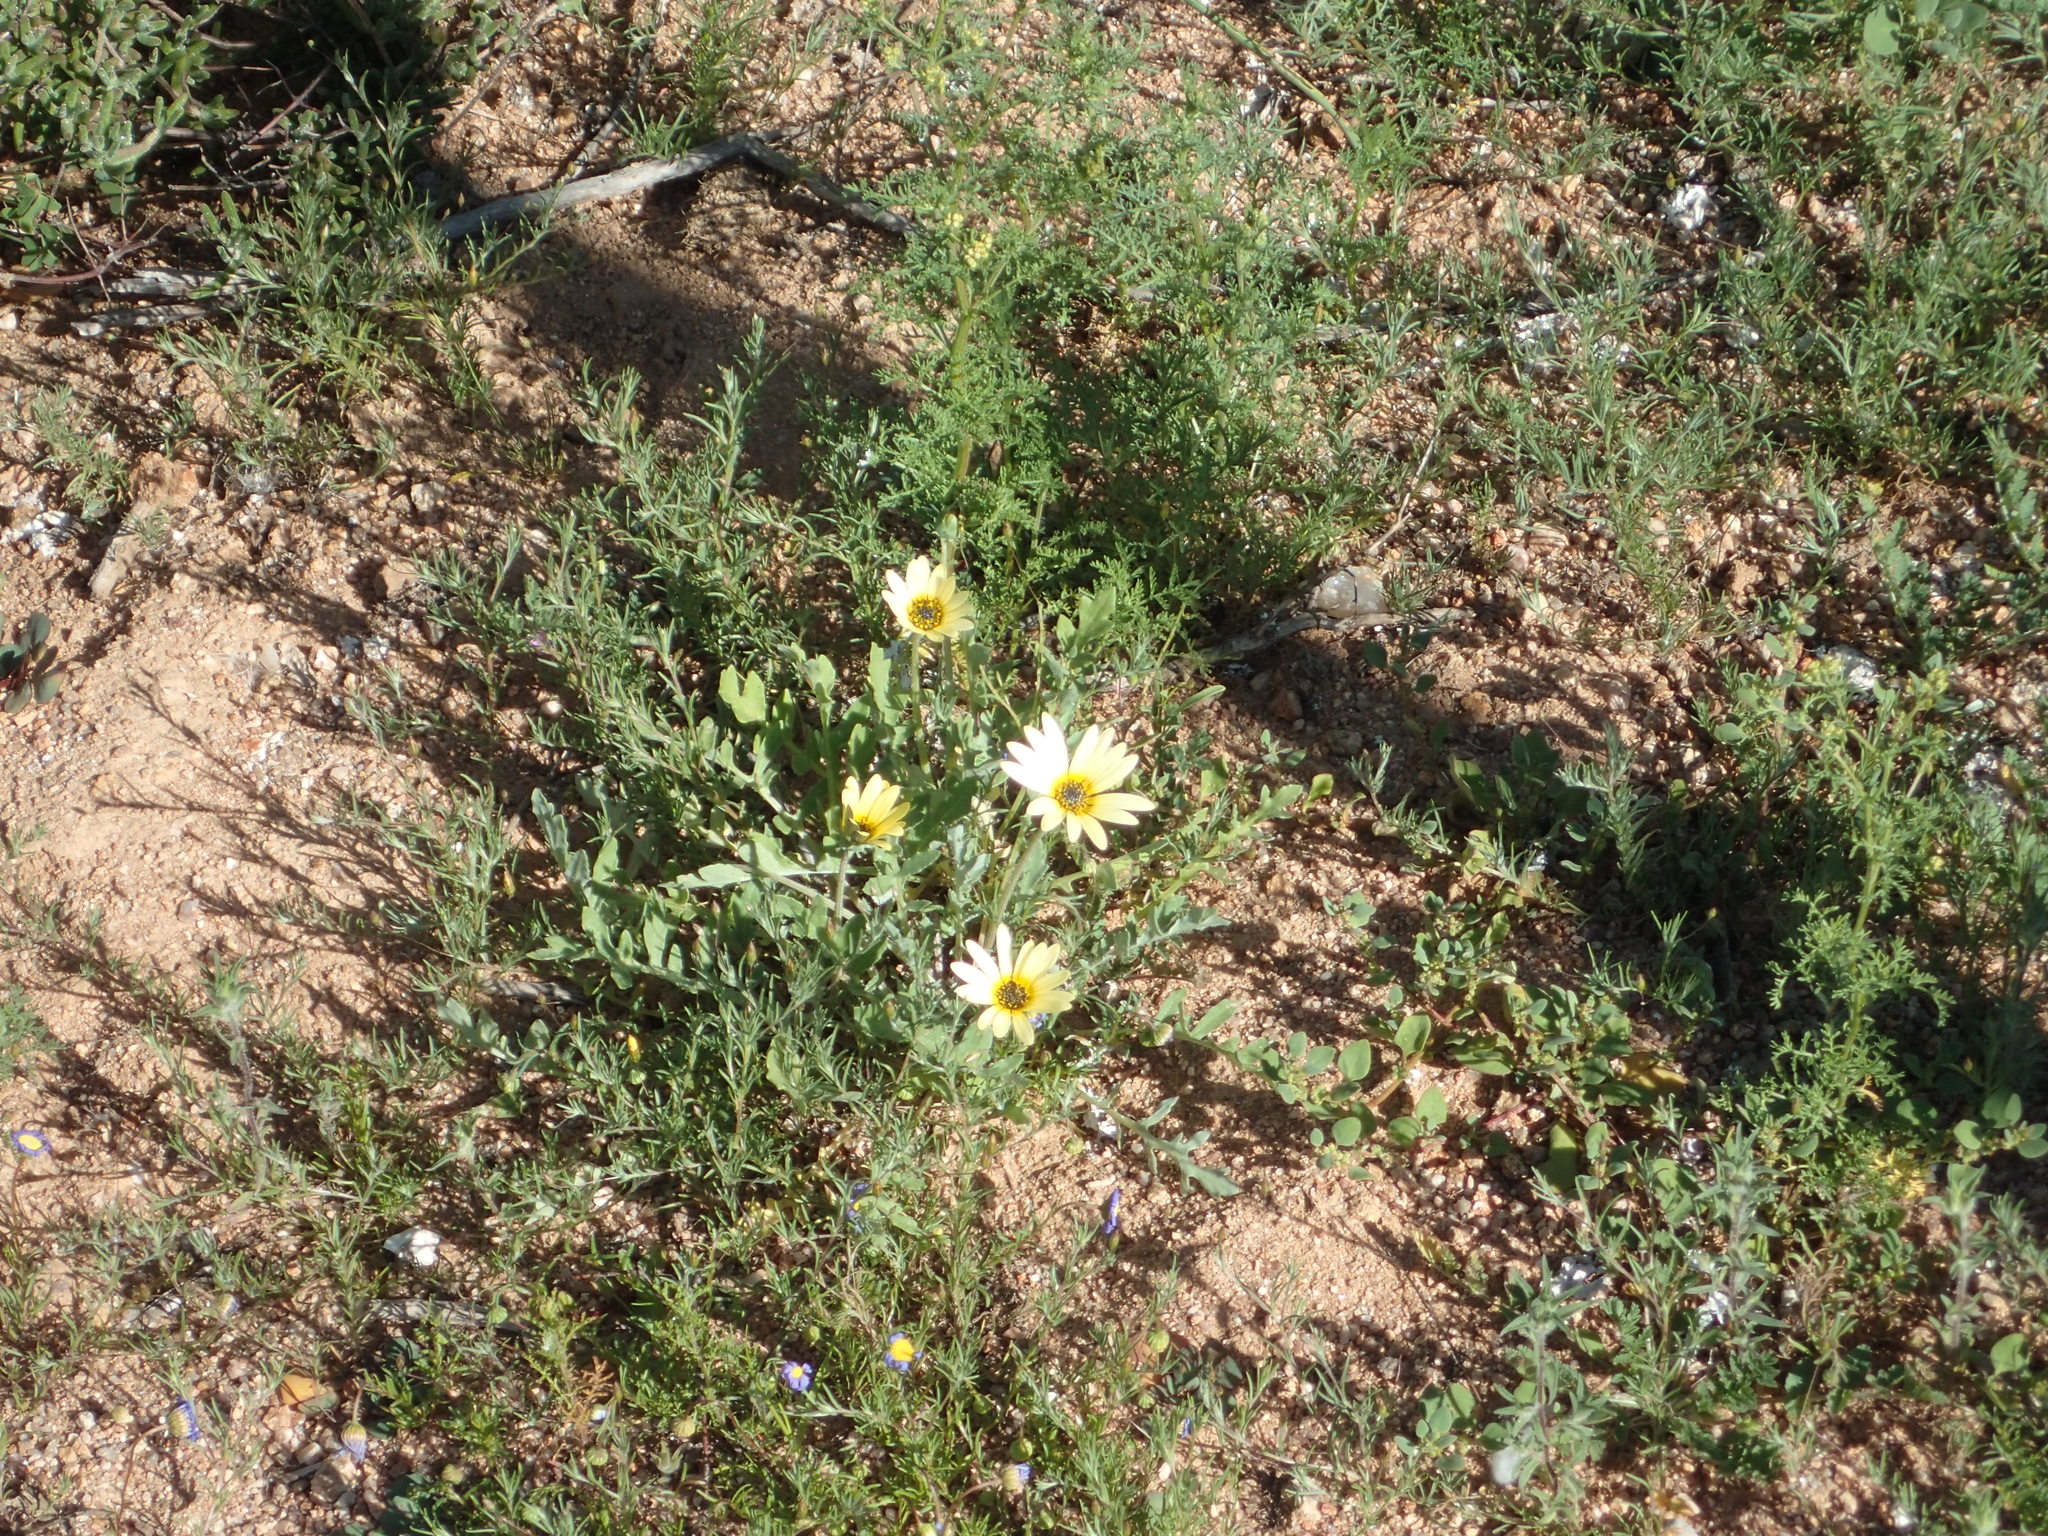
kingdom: Plantae
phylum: Tracheophyta
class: Magnoliopsida
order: Asterales
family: Asteraceae
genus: Arctotheca
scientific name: Arctotheca calendula
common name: Capeweed
